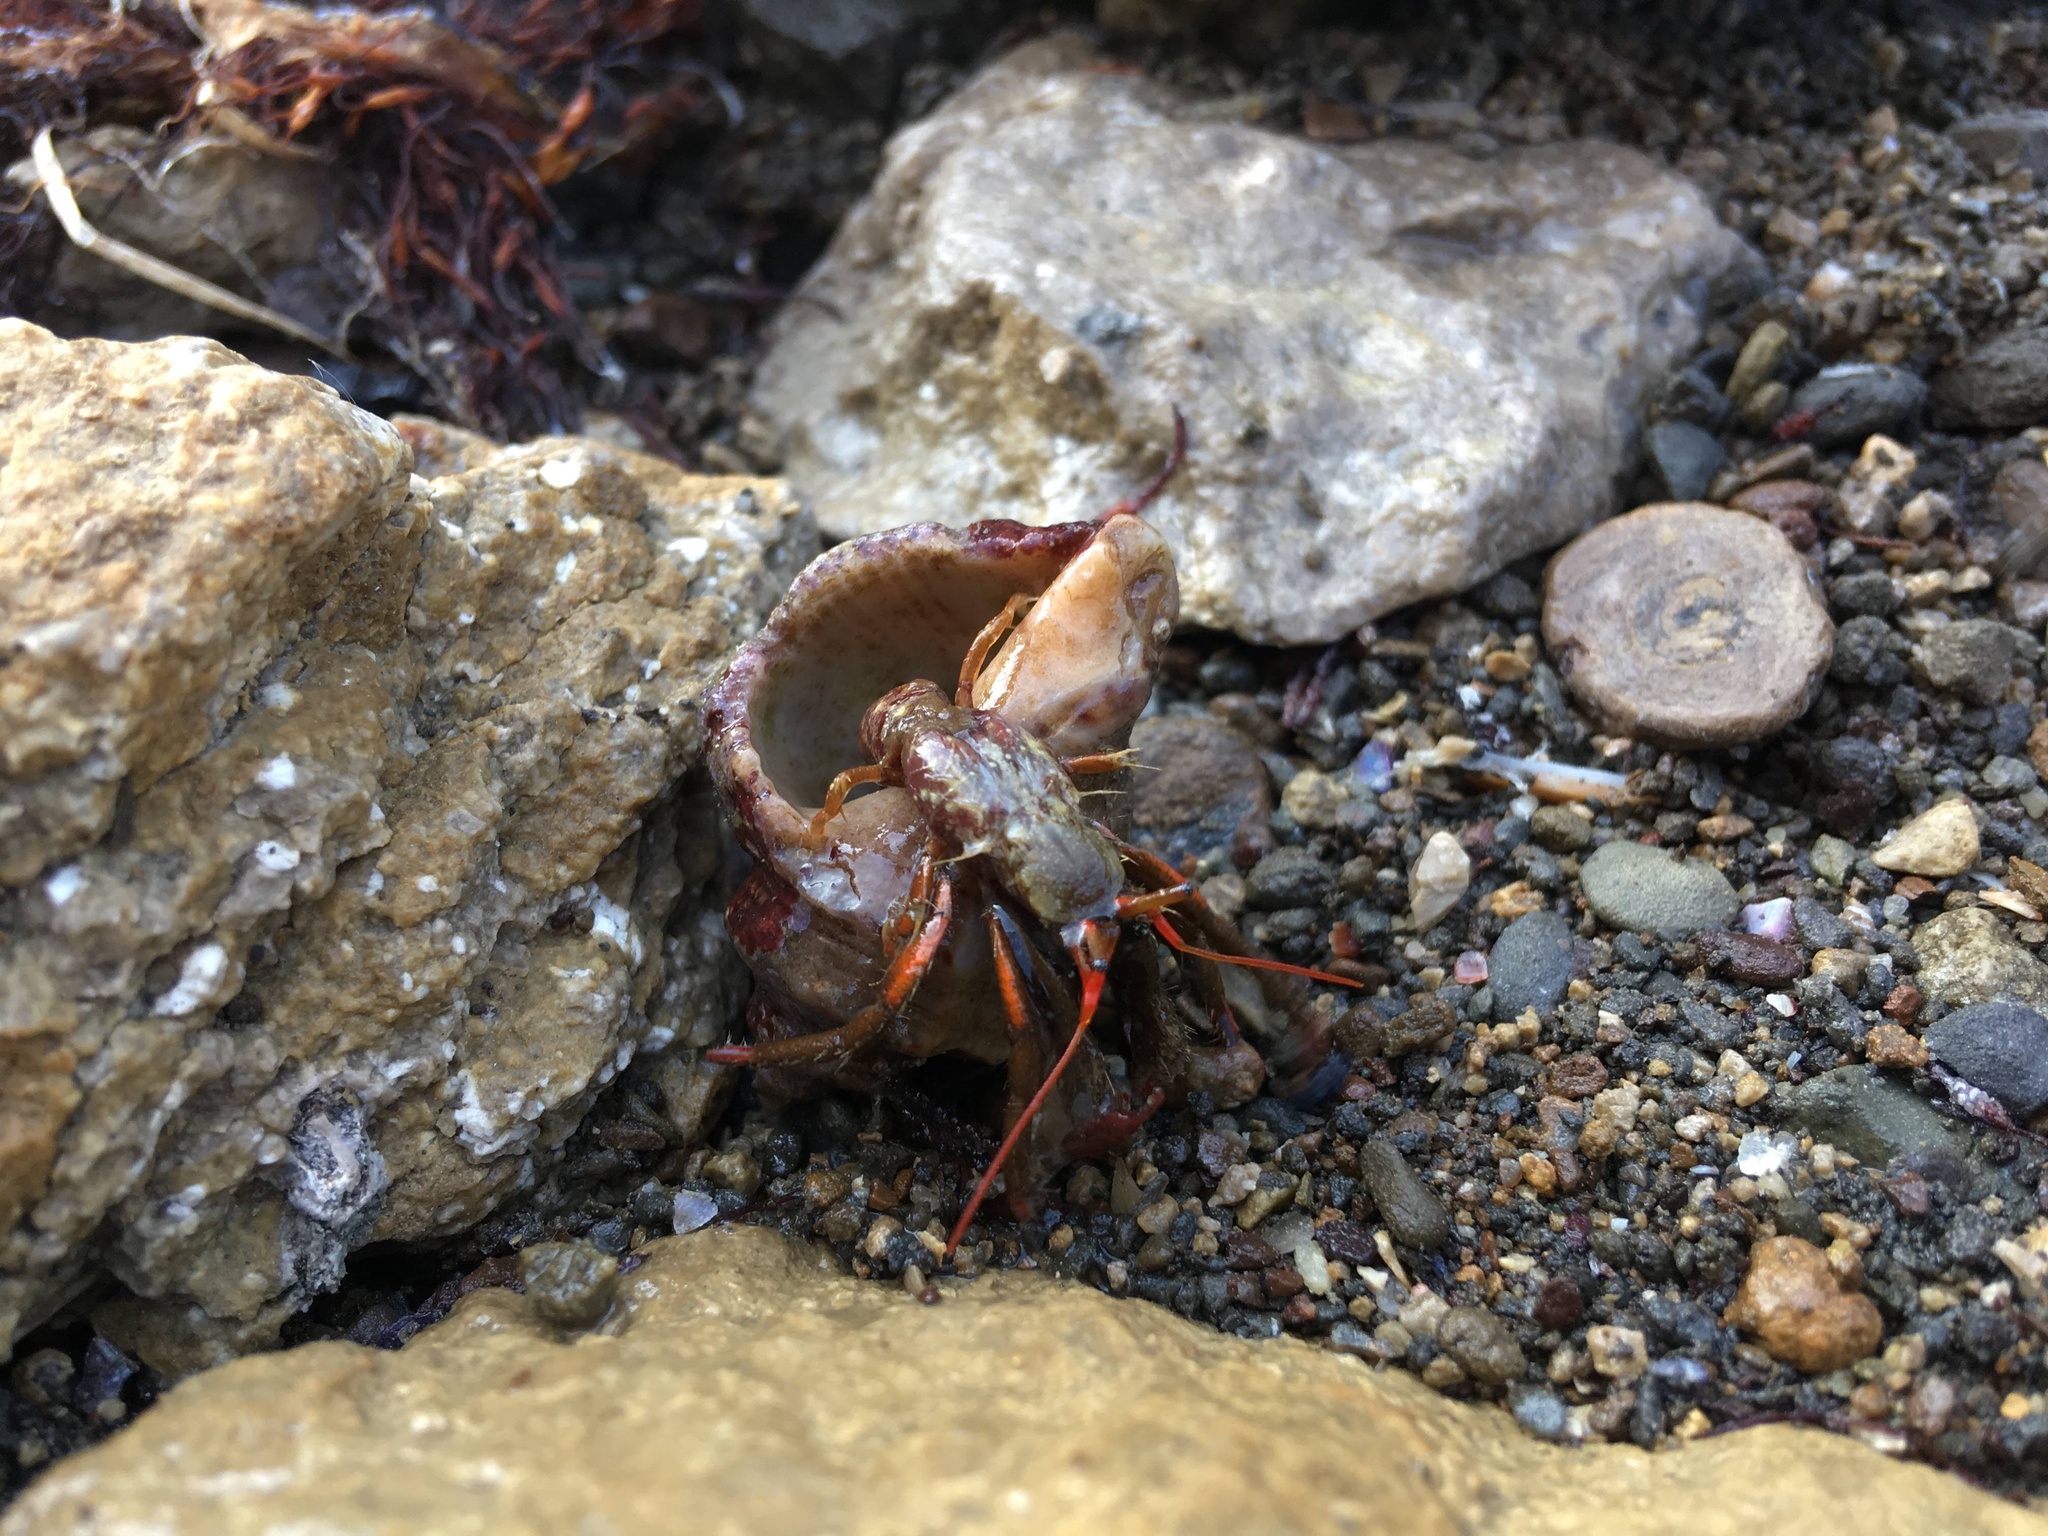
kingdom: Animalia
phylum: Arthropoda
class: Malacostraca
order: Decapoda
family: Diogenidae
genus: Clibanarius
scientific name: Clibanarius erythropus
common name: Hermit crab
